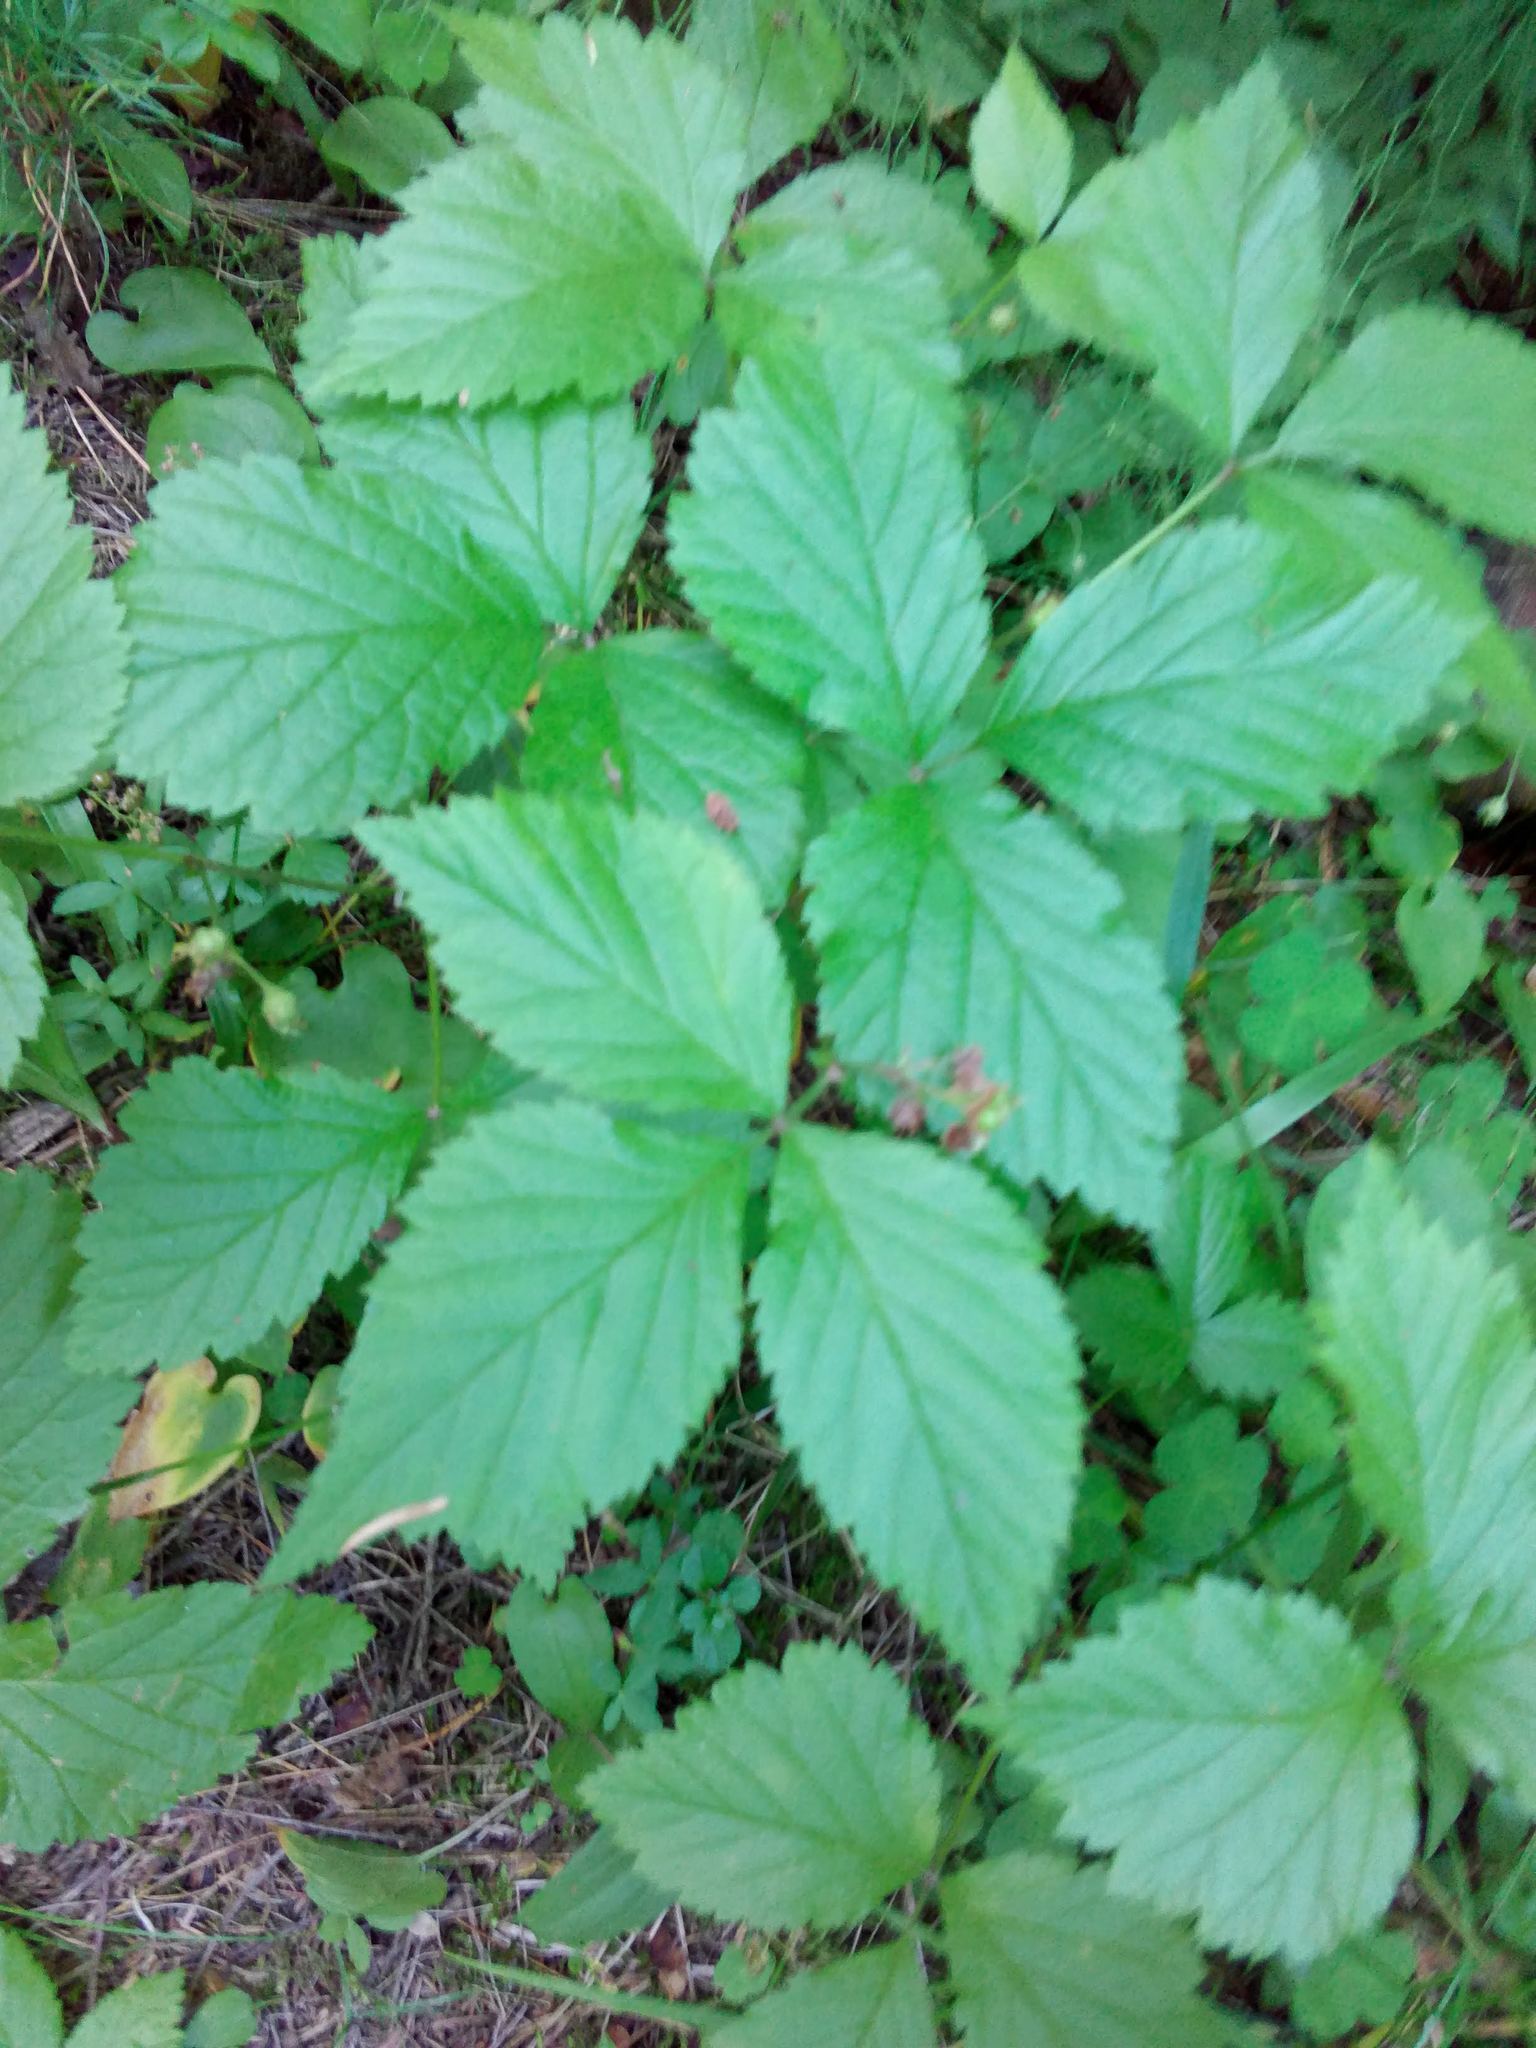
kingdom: Plantae
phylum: Tracheophyta
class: Magnoliopsida
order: Rosales
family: Rosaceae
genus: Rubus
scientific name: Rubus saxatilis
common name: Stone bramble
